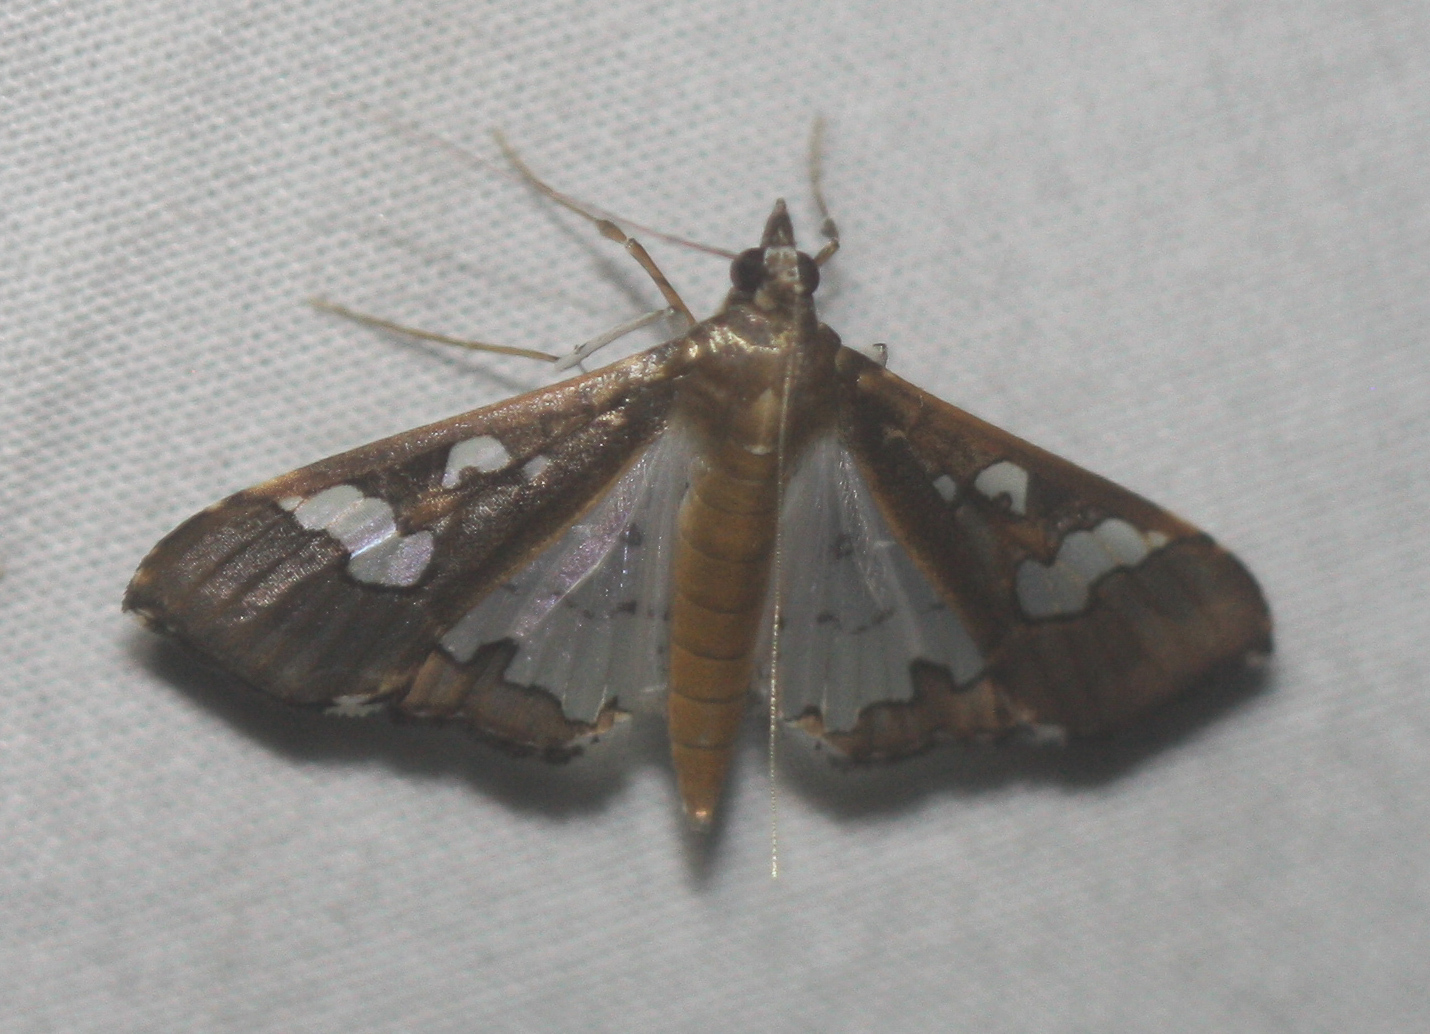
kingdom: Animalia
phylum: Arthropoda
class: Insecta
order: Lepidoptera
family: Crambidae
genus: Maruca
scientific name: Maruca vitrata
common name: Maruca pod borer
